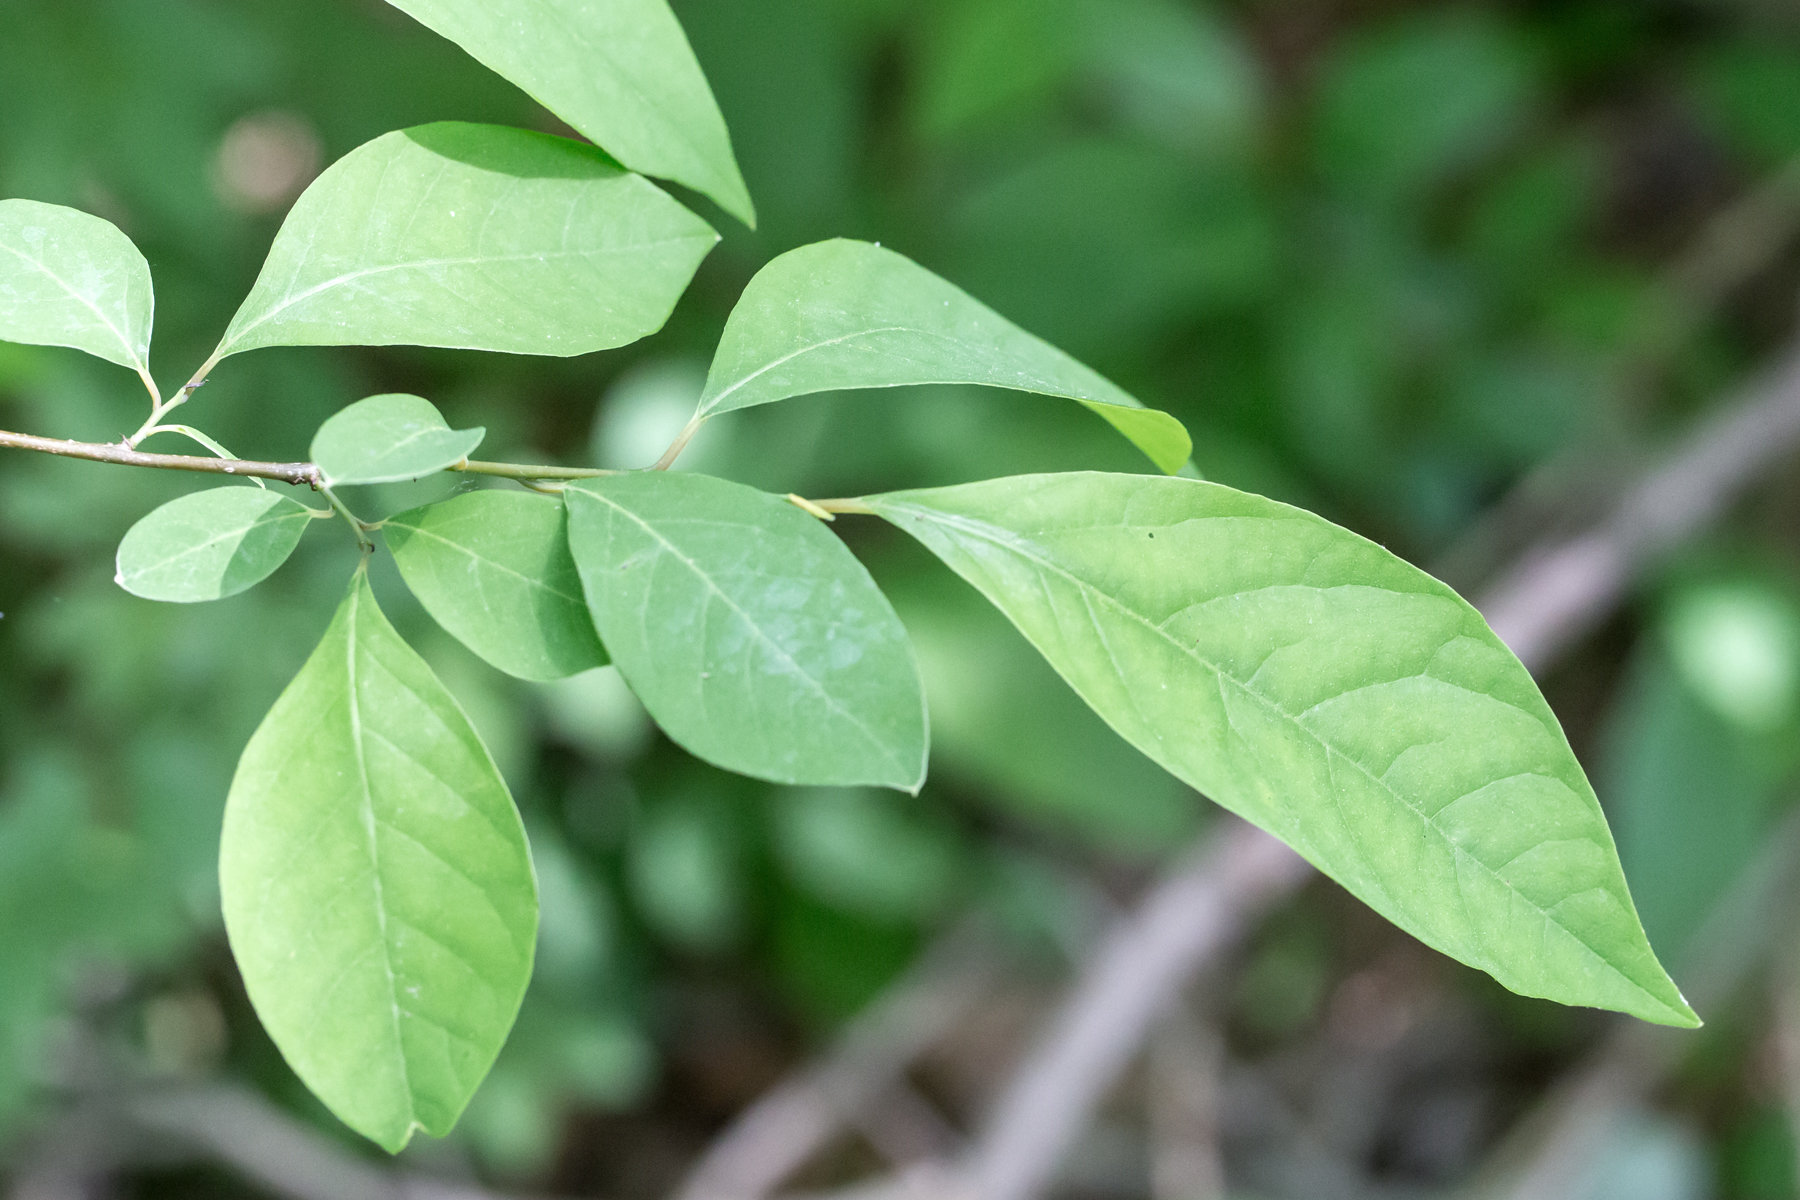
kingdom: Plantae
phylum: Tracheophyta
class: Magnoliopsida
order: Laurales
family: Lauraceae
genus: Lindera
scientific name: Lindera benzoin
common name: Spicebush
